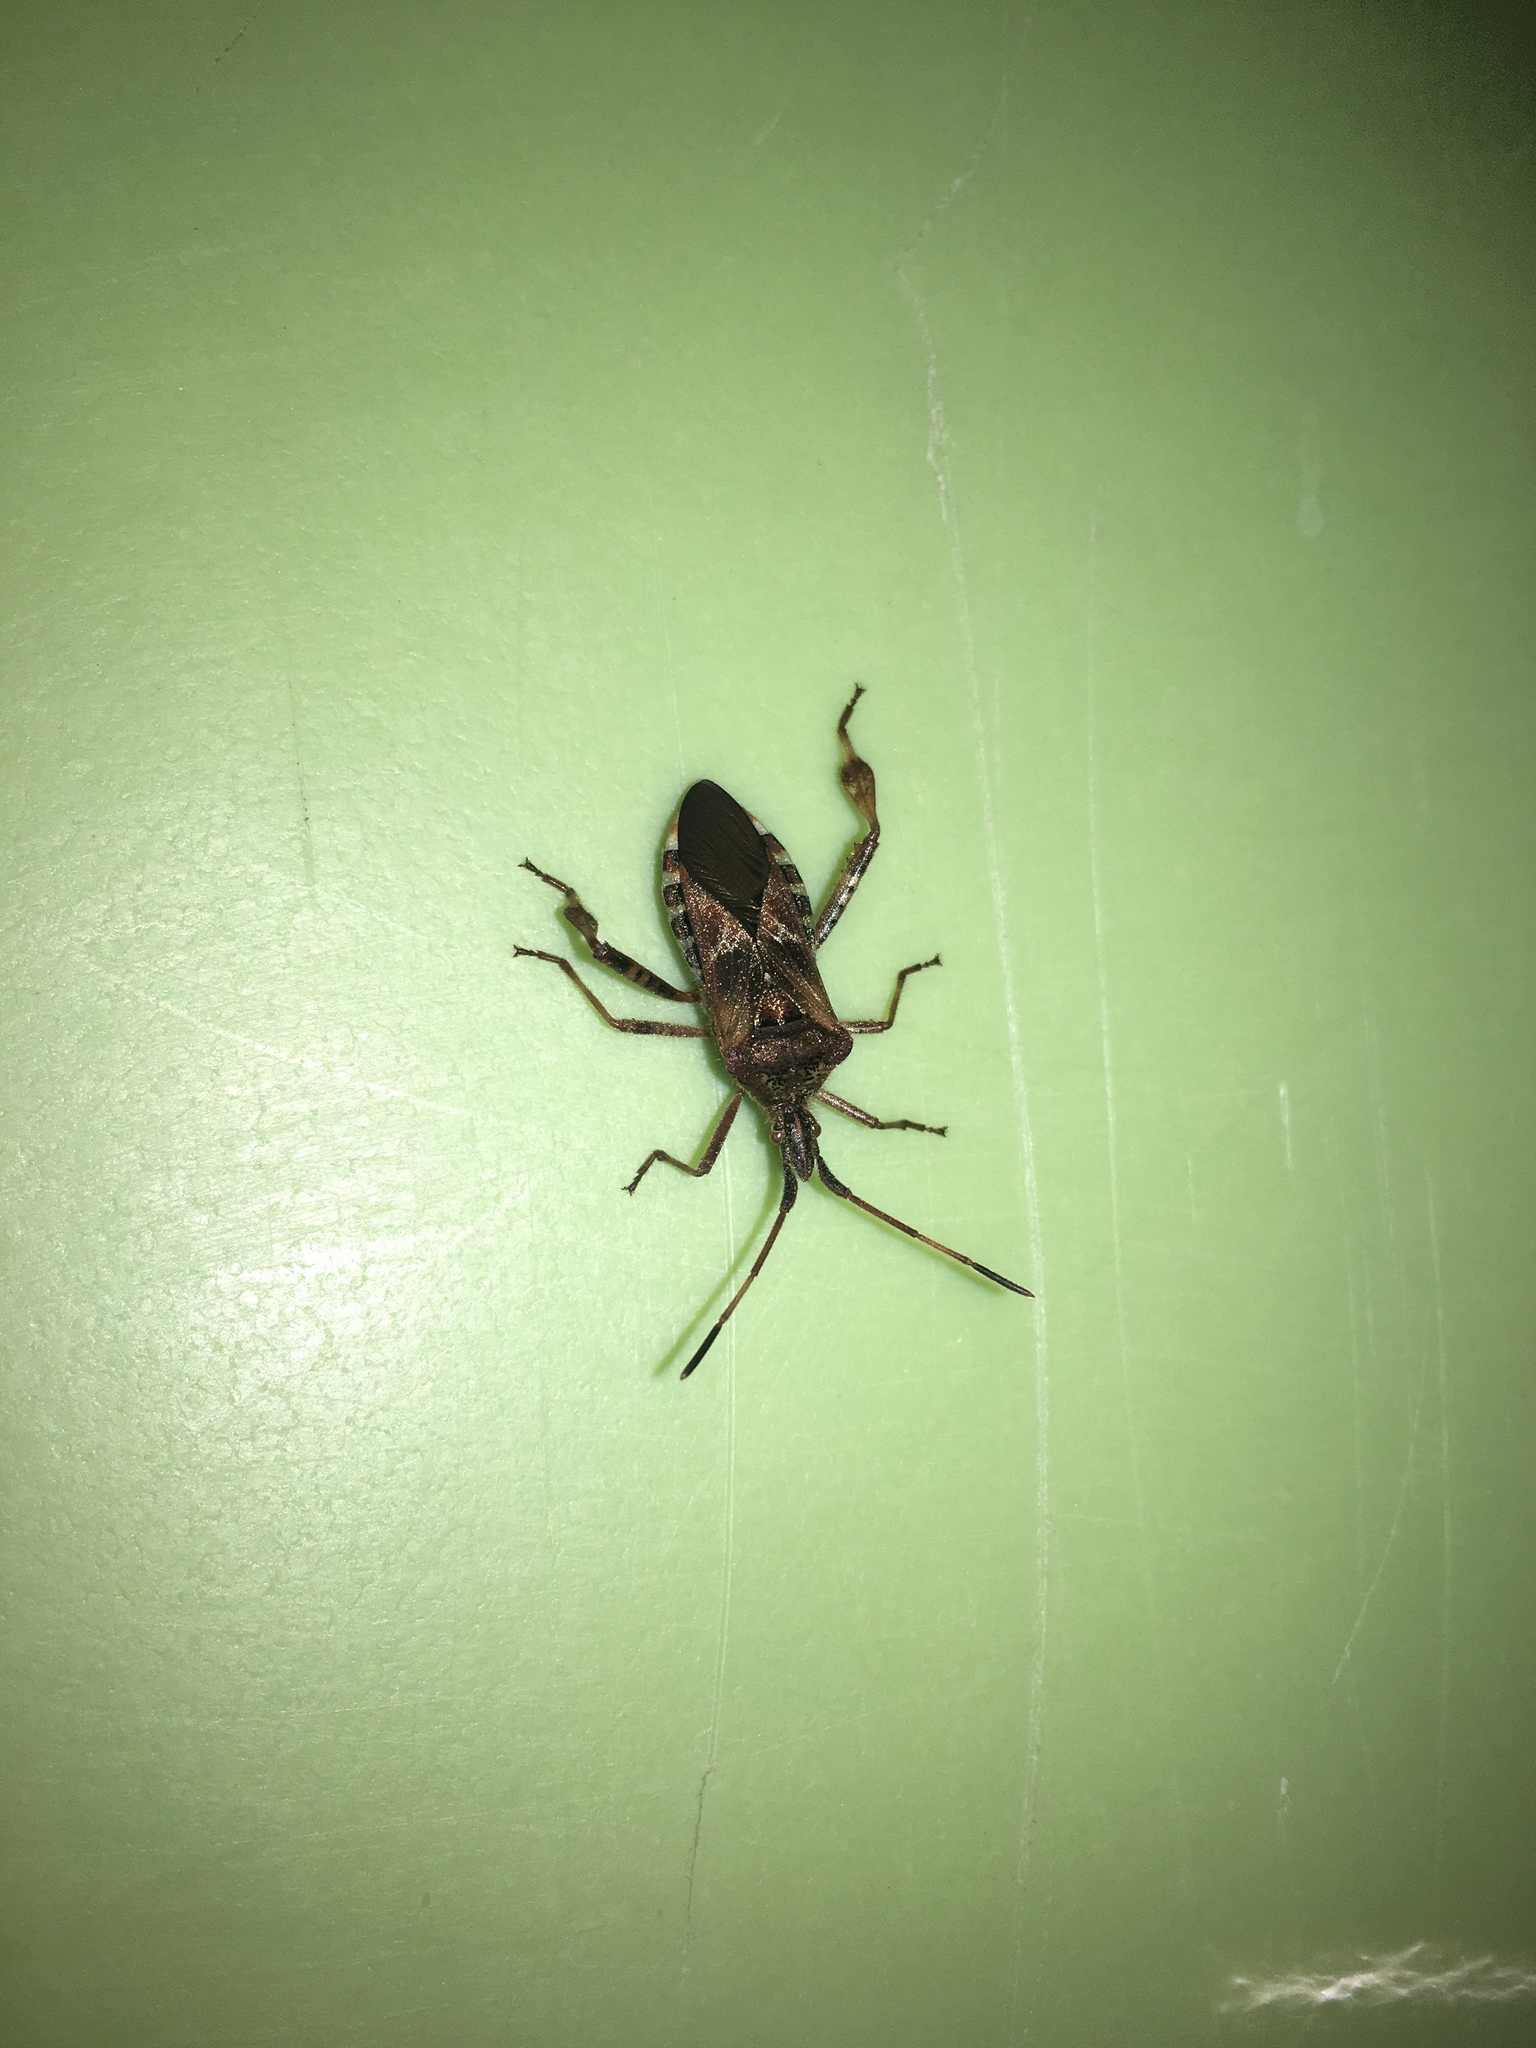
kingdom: Animalia
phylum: Arthropoda
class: Insecta
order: Hemiptera
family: Coreidae
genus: Leptoglossus
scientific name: Leptoglossus occidentalis
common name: Western conifer-seed bug
